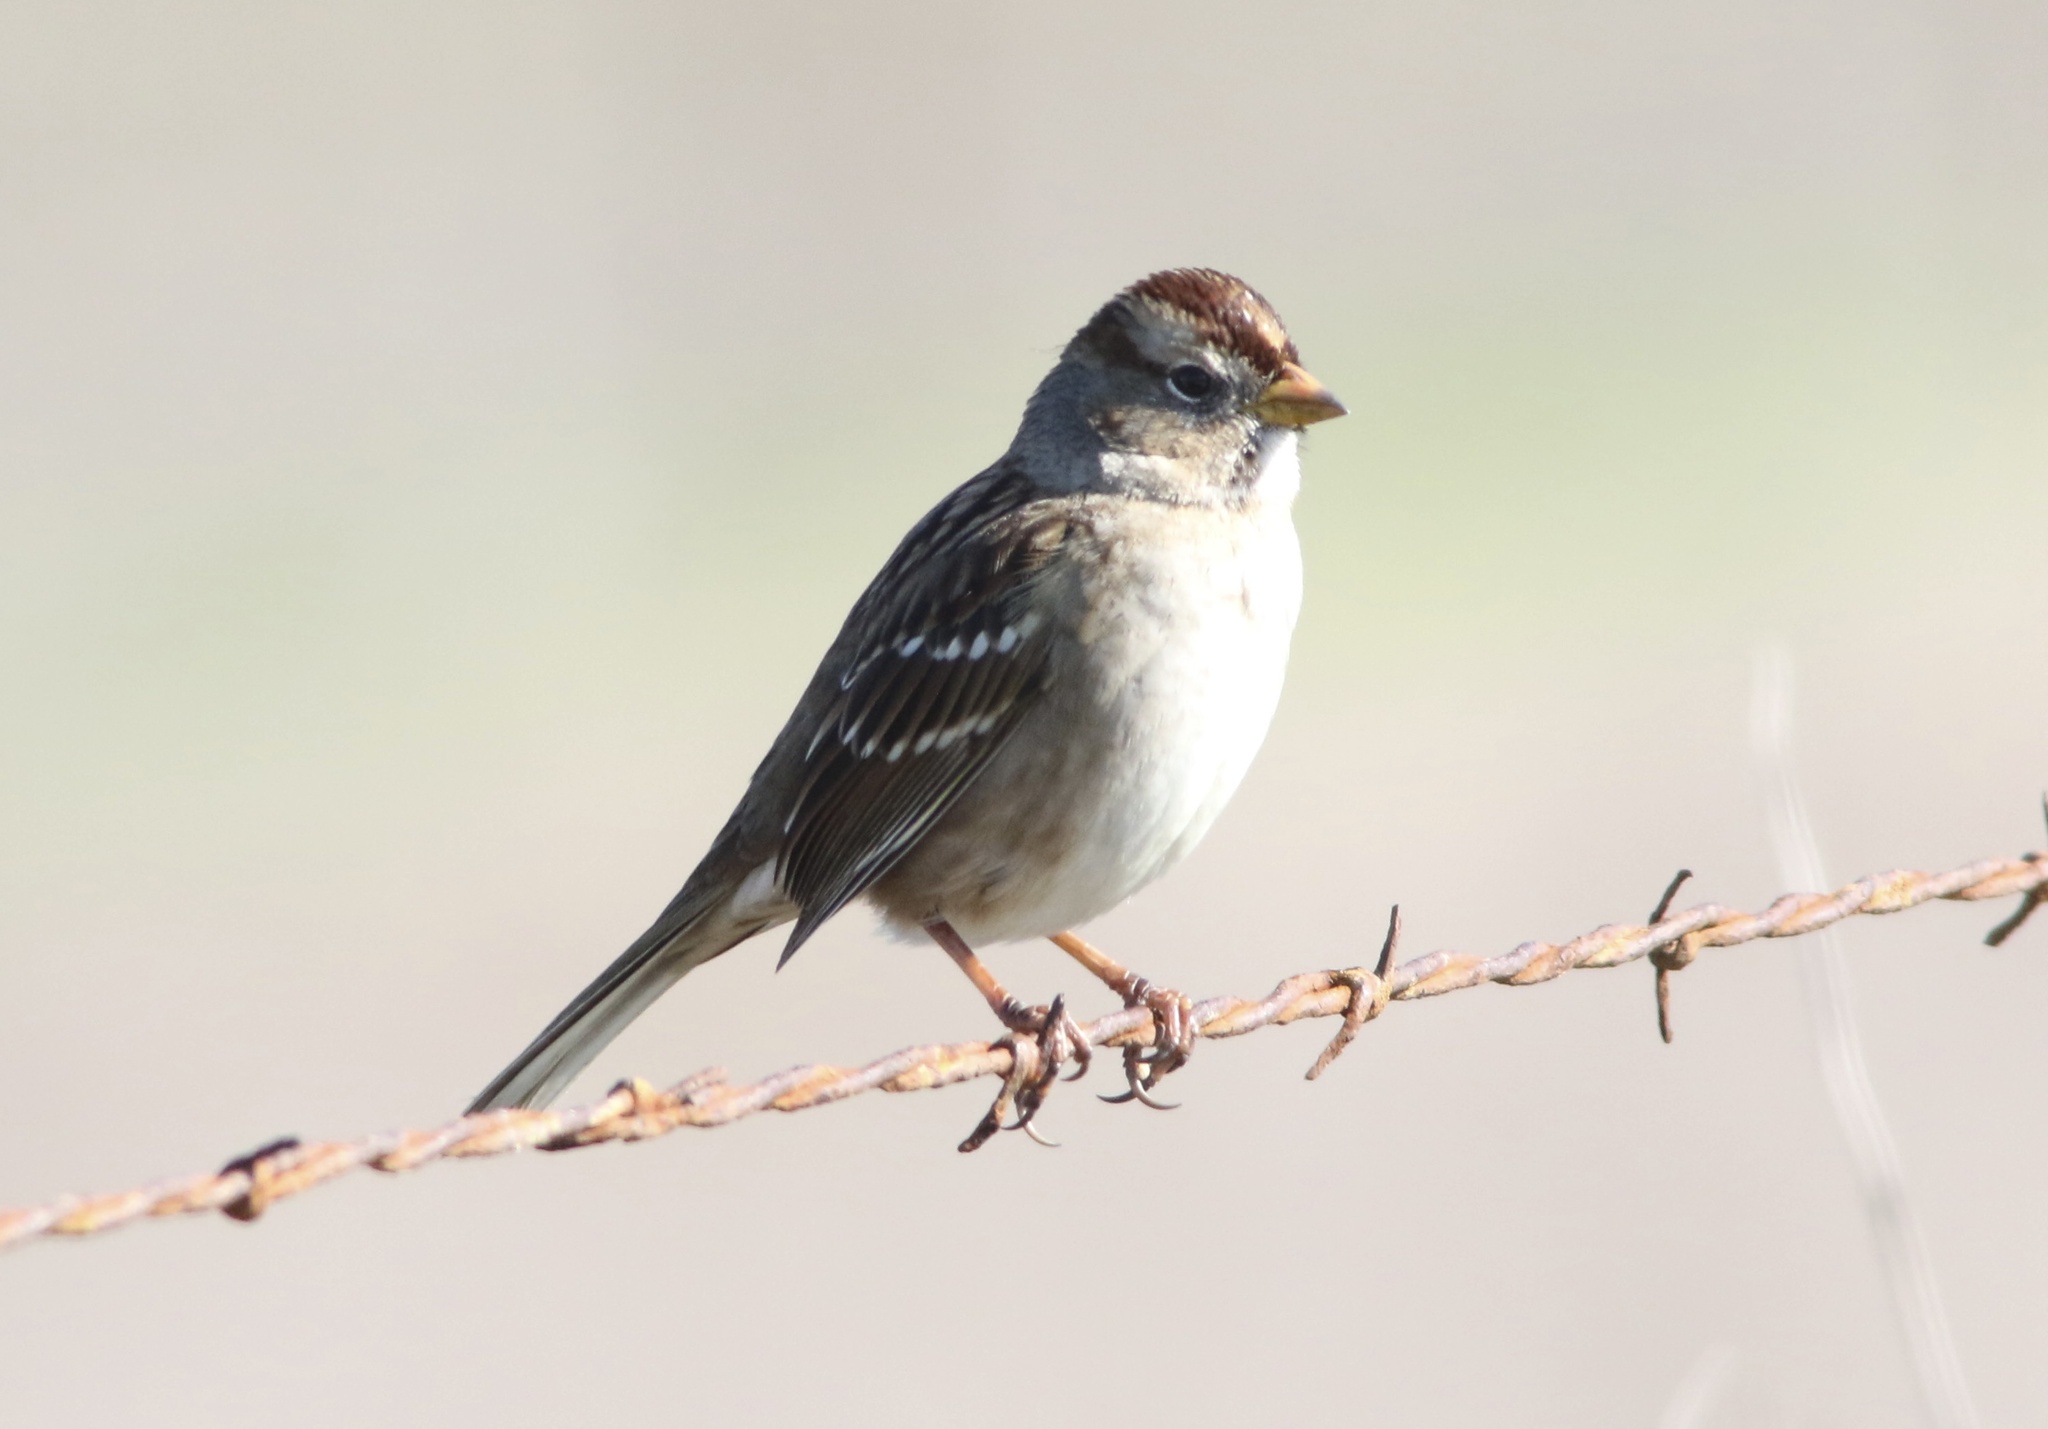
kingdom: Animalia
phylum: Chordata
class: Aves
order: Passeriformes
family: Passerellidae
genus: Zonotrichia
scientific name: Zonotrichia leucophrys
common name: White-crowned sparrow
